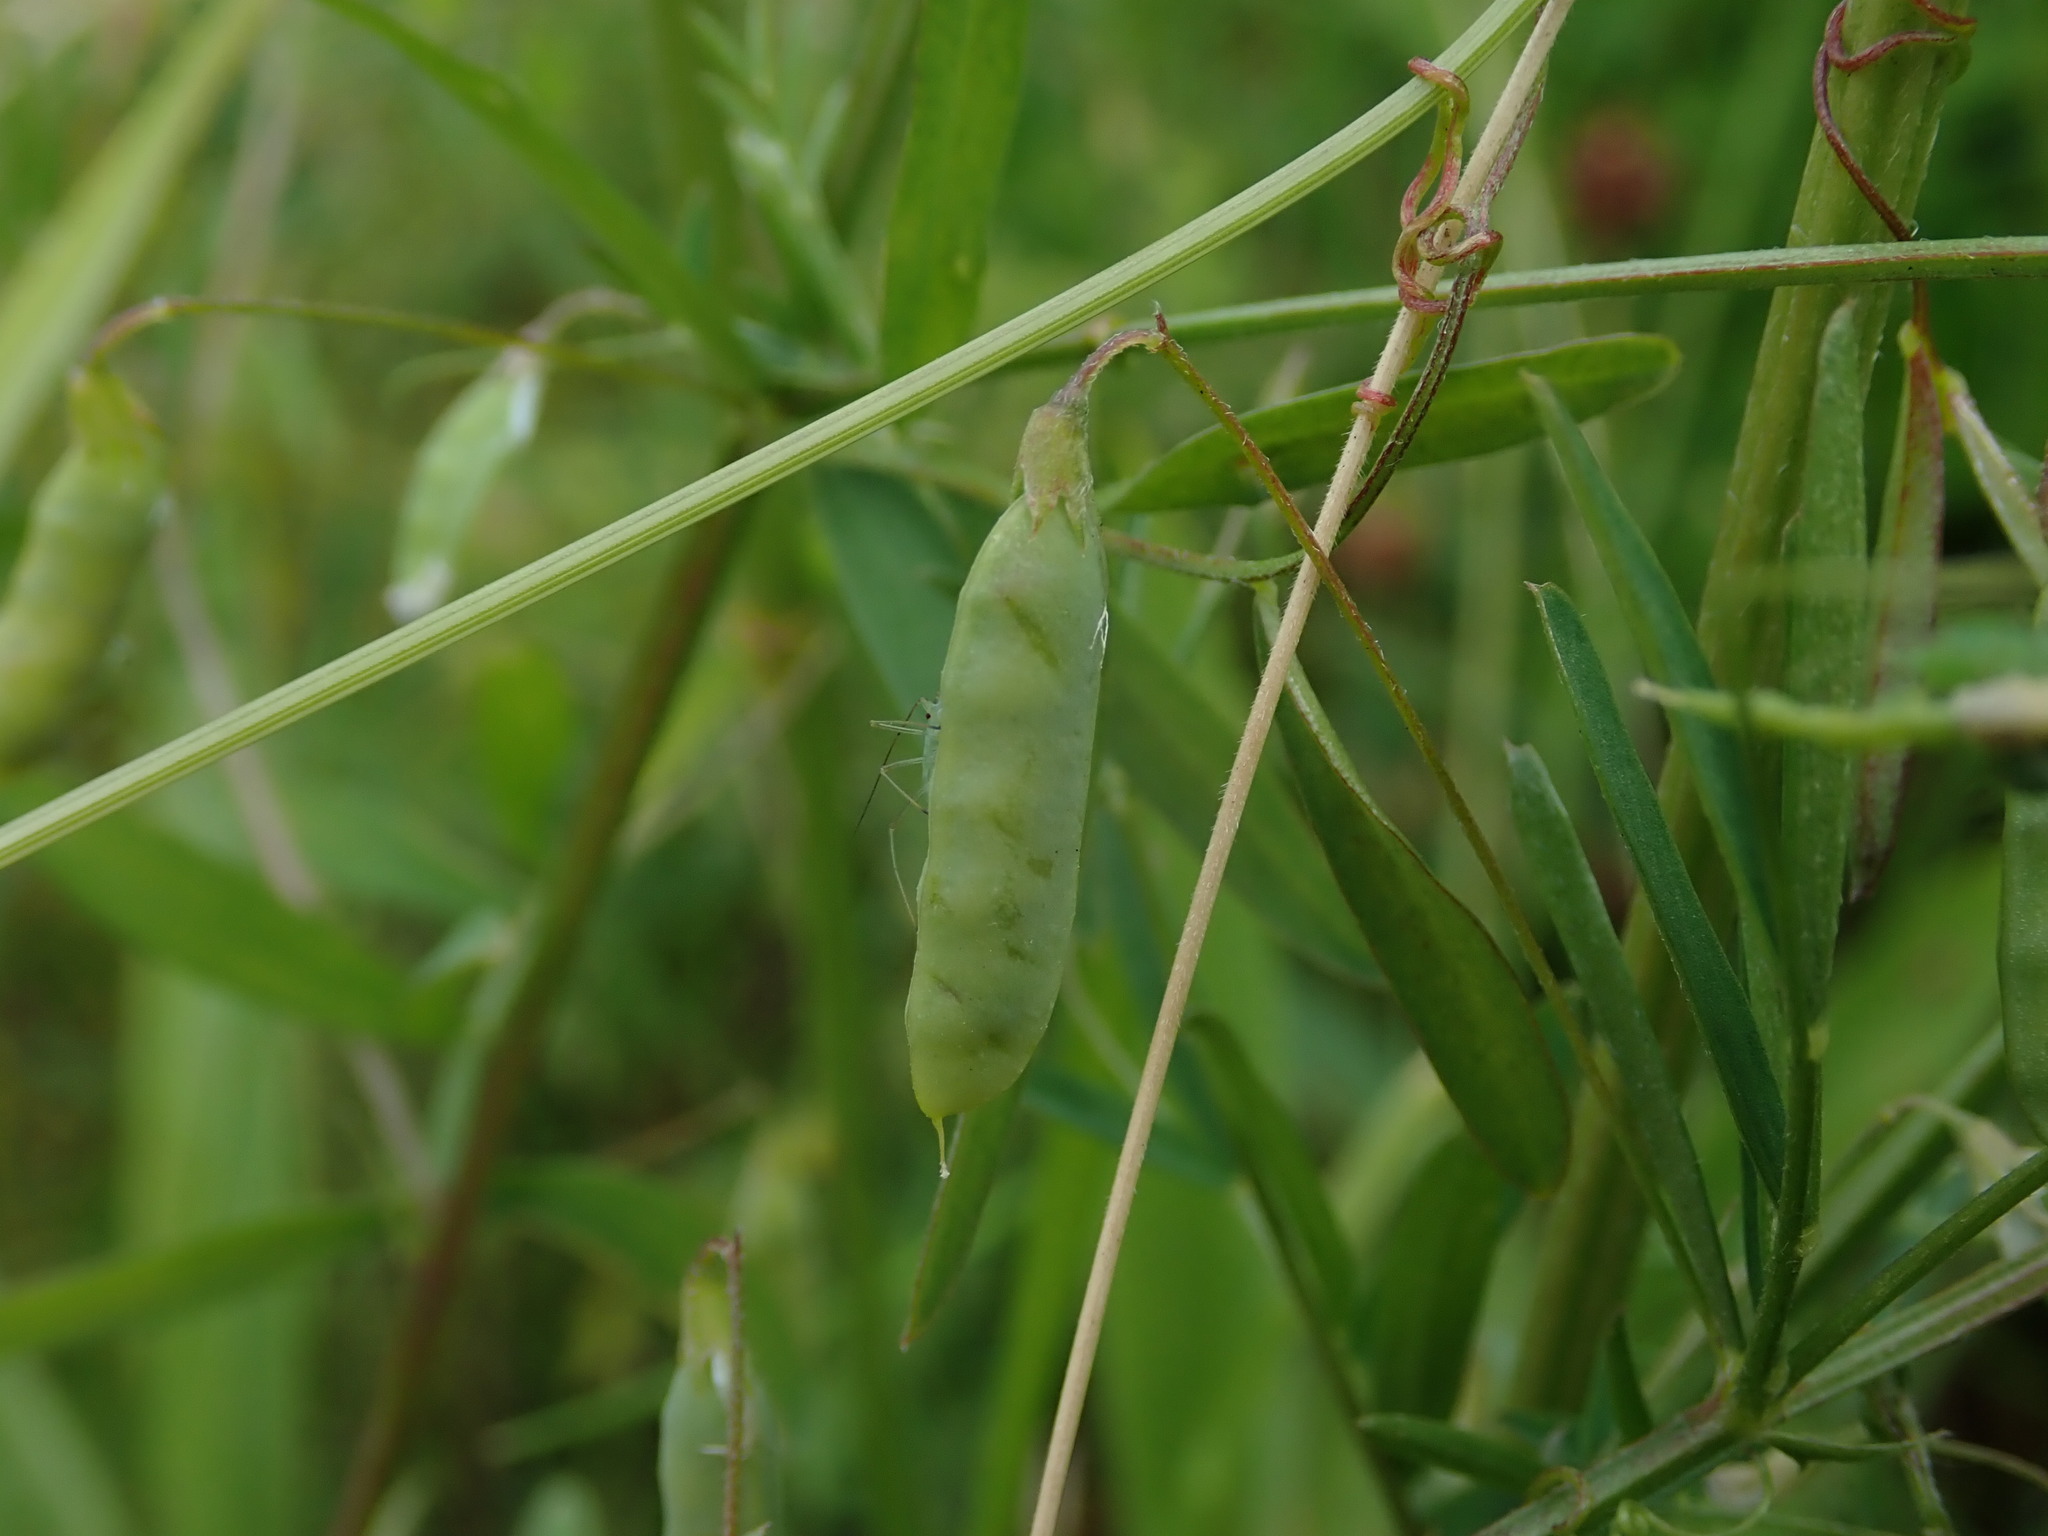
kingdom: Plantae
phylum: Tracheophyta
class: Magnoliopsida
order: Fabales
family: Fabaceae
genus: Vicia
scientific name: Vicia tetrasperma
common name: Smooth tare
